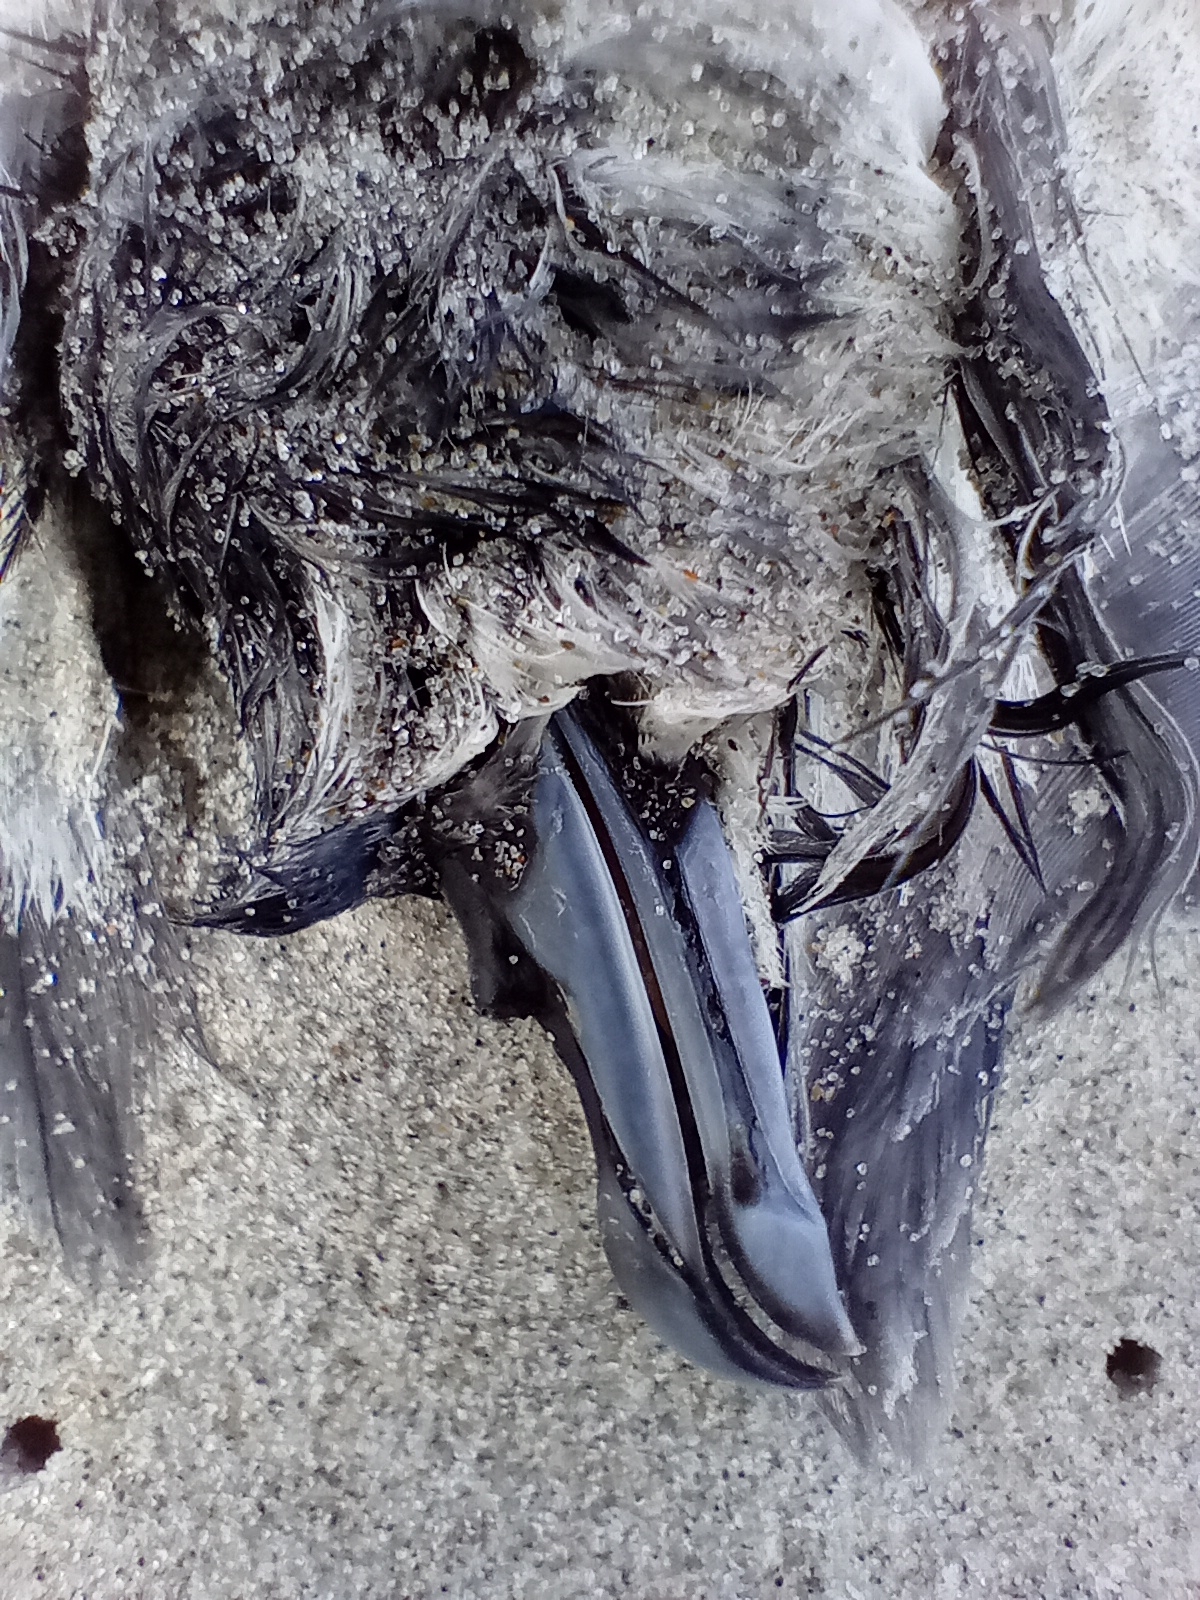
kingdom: Animalia
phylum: Chordata
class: Aves
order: Procellariiformes
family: Procellariidae
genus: Pachyptila
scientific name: Pachyptila turtur
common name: Fairy prion
